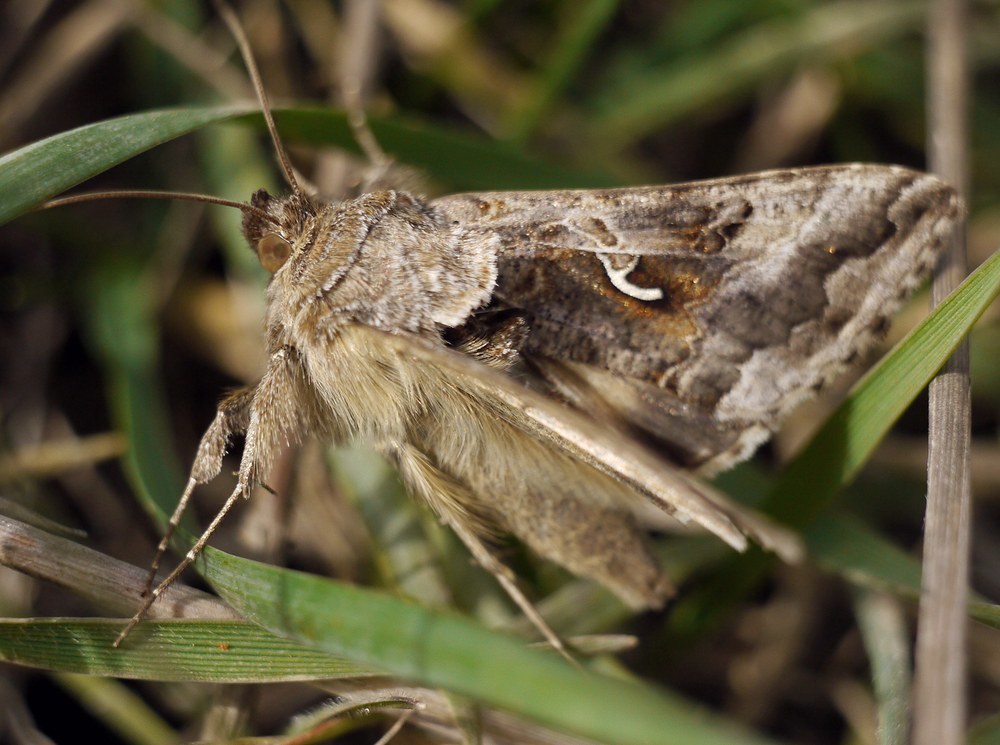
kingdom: Animalia
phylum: Arthropoda
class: Insecta
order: Lepidoptera
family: Noctuidae
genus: Autographa
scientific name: Autographa gamma
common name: Silver y
